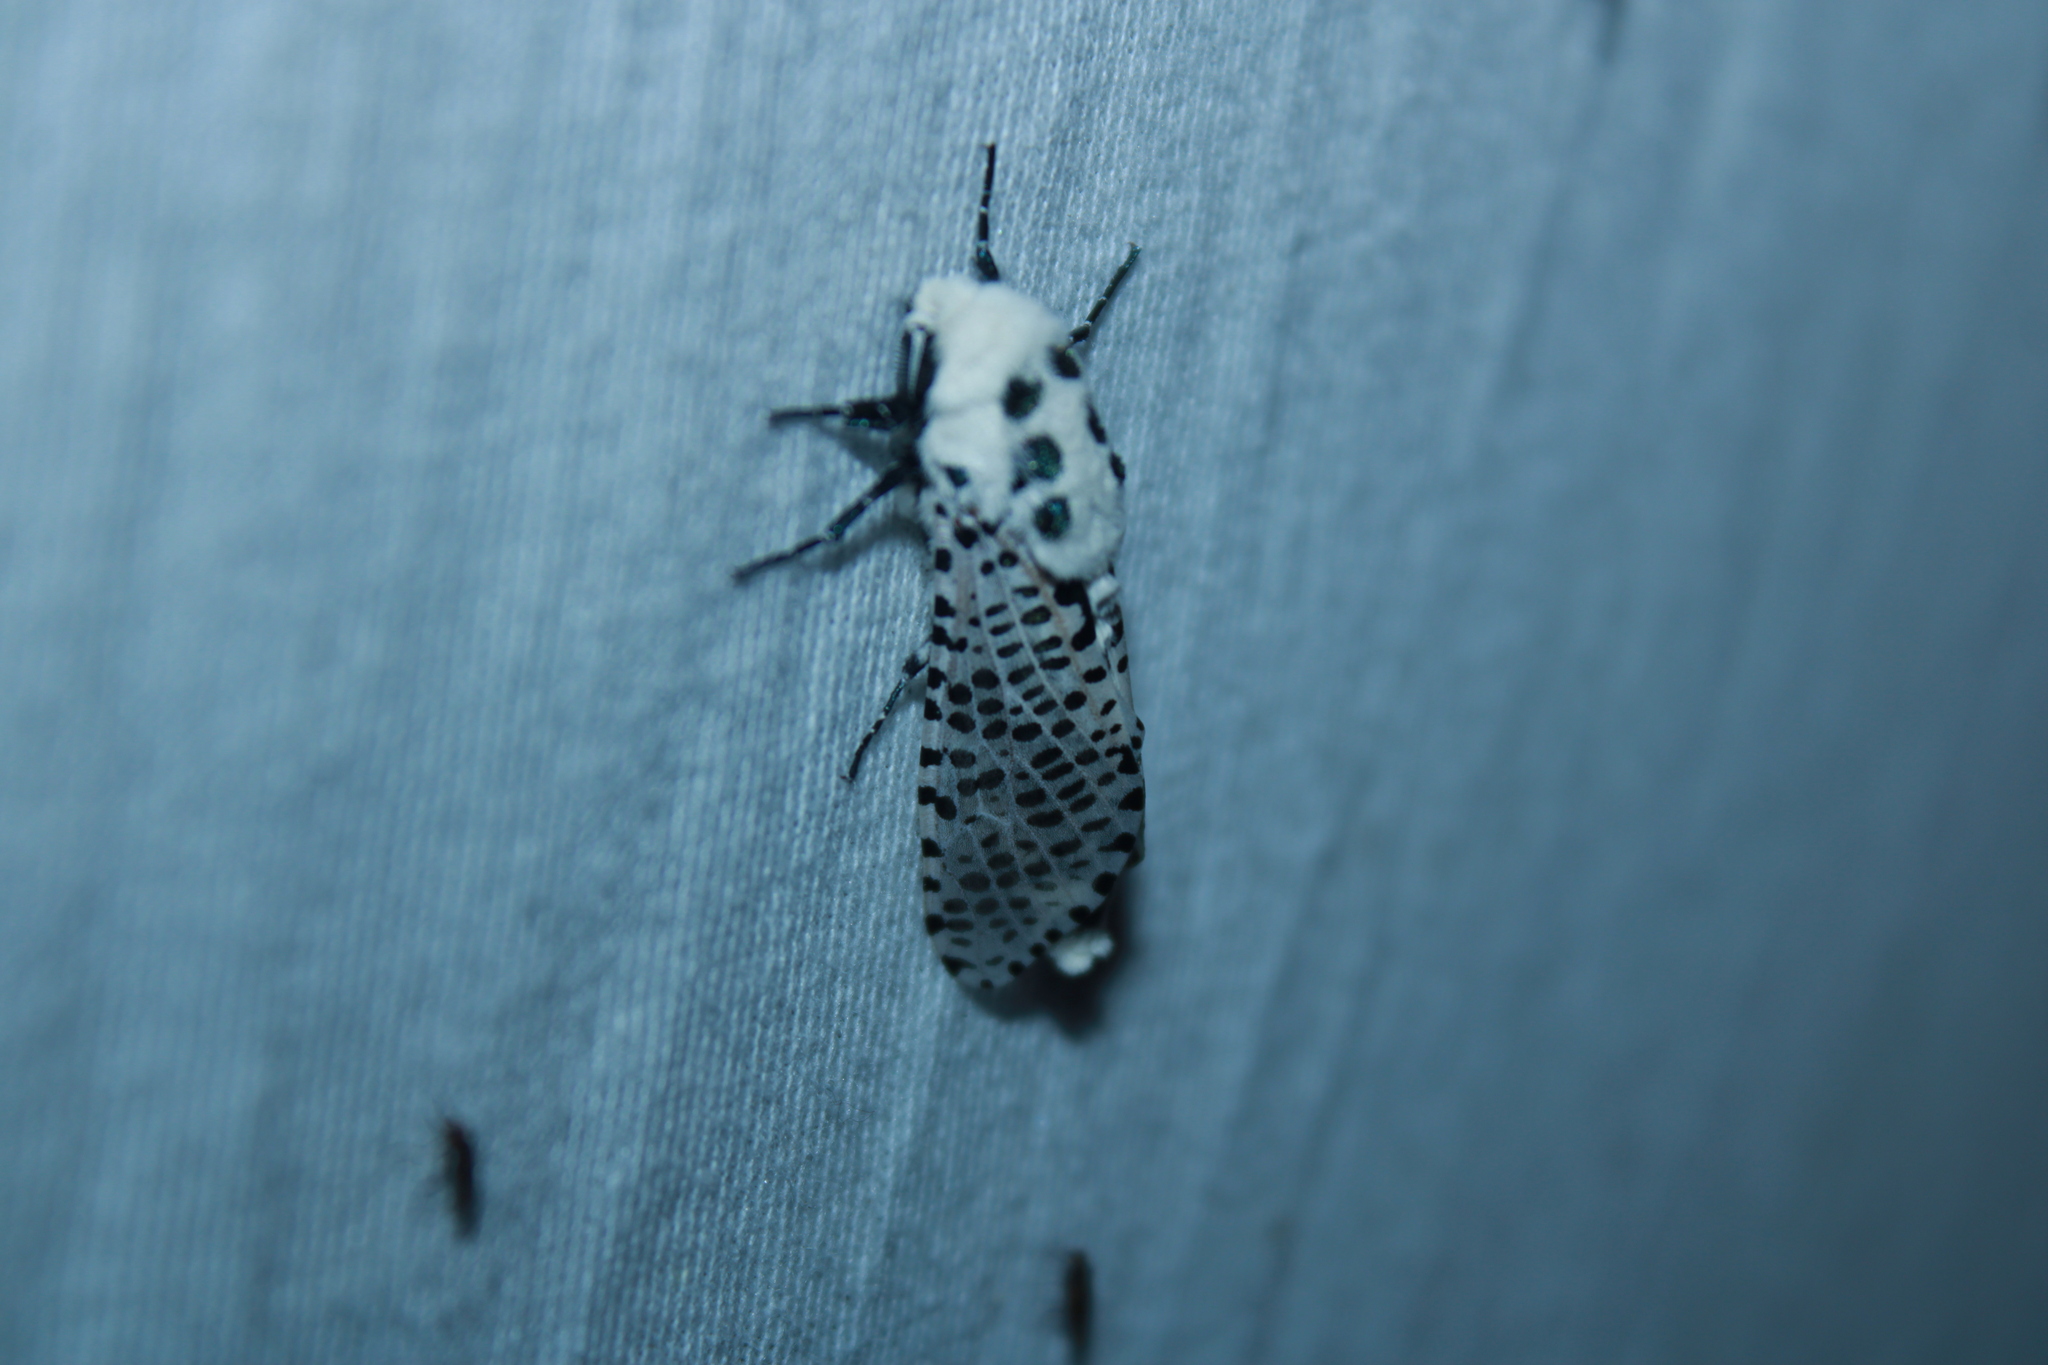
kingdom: Animalia
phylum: Arthropoda
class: Insecta
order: Lepidoptera
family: Cossidae
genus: Zeuzera
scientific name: Zeuzera pyrina
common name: Leopard moth
